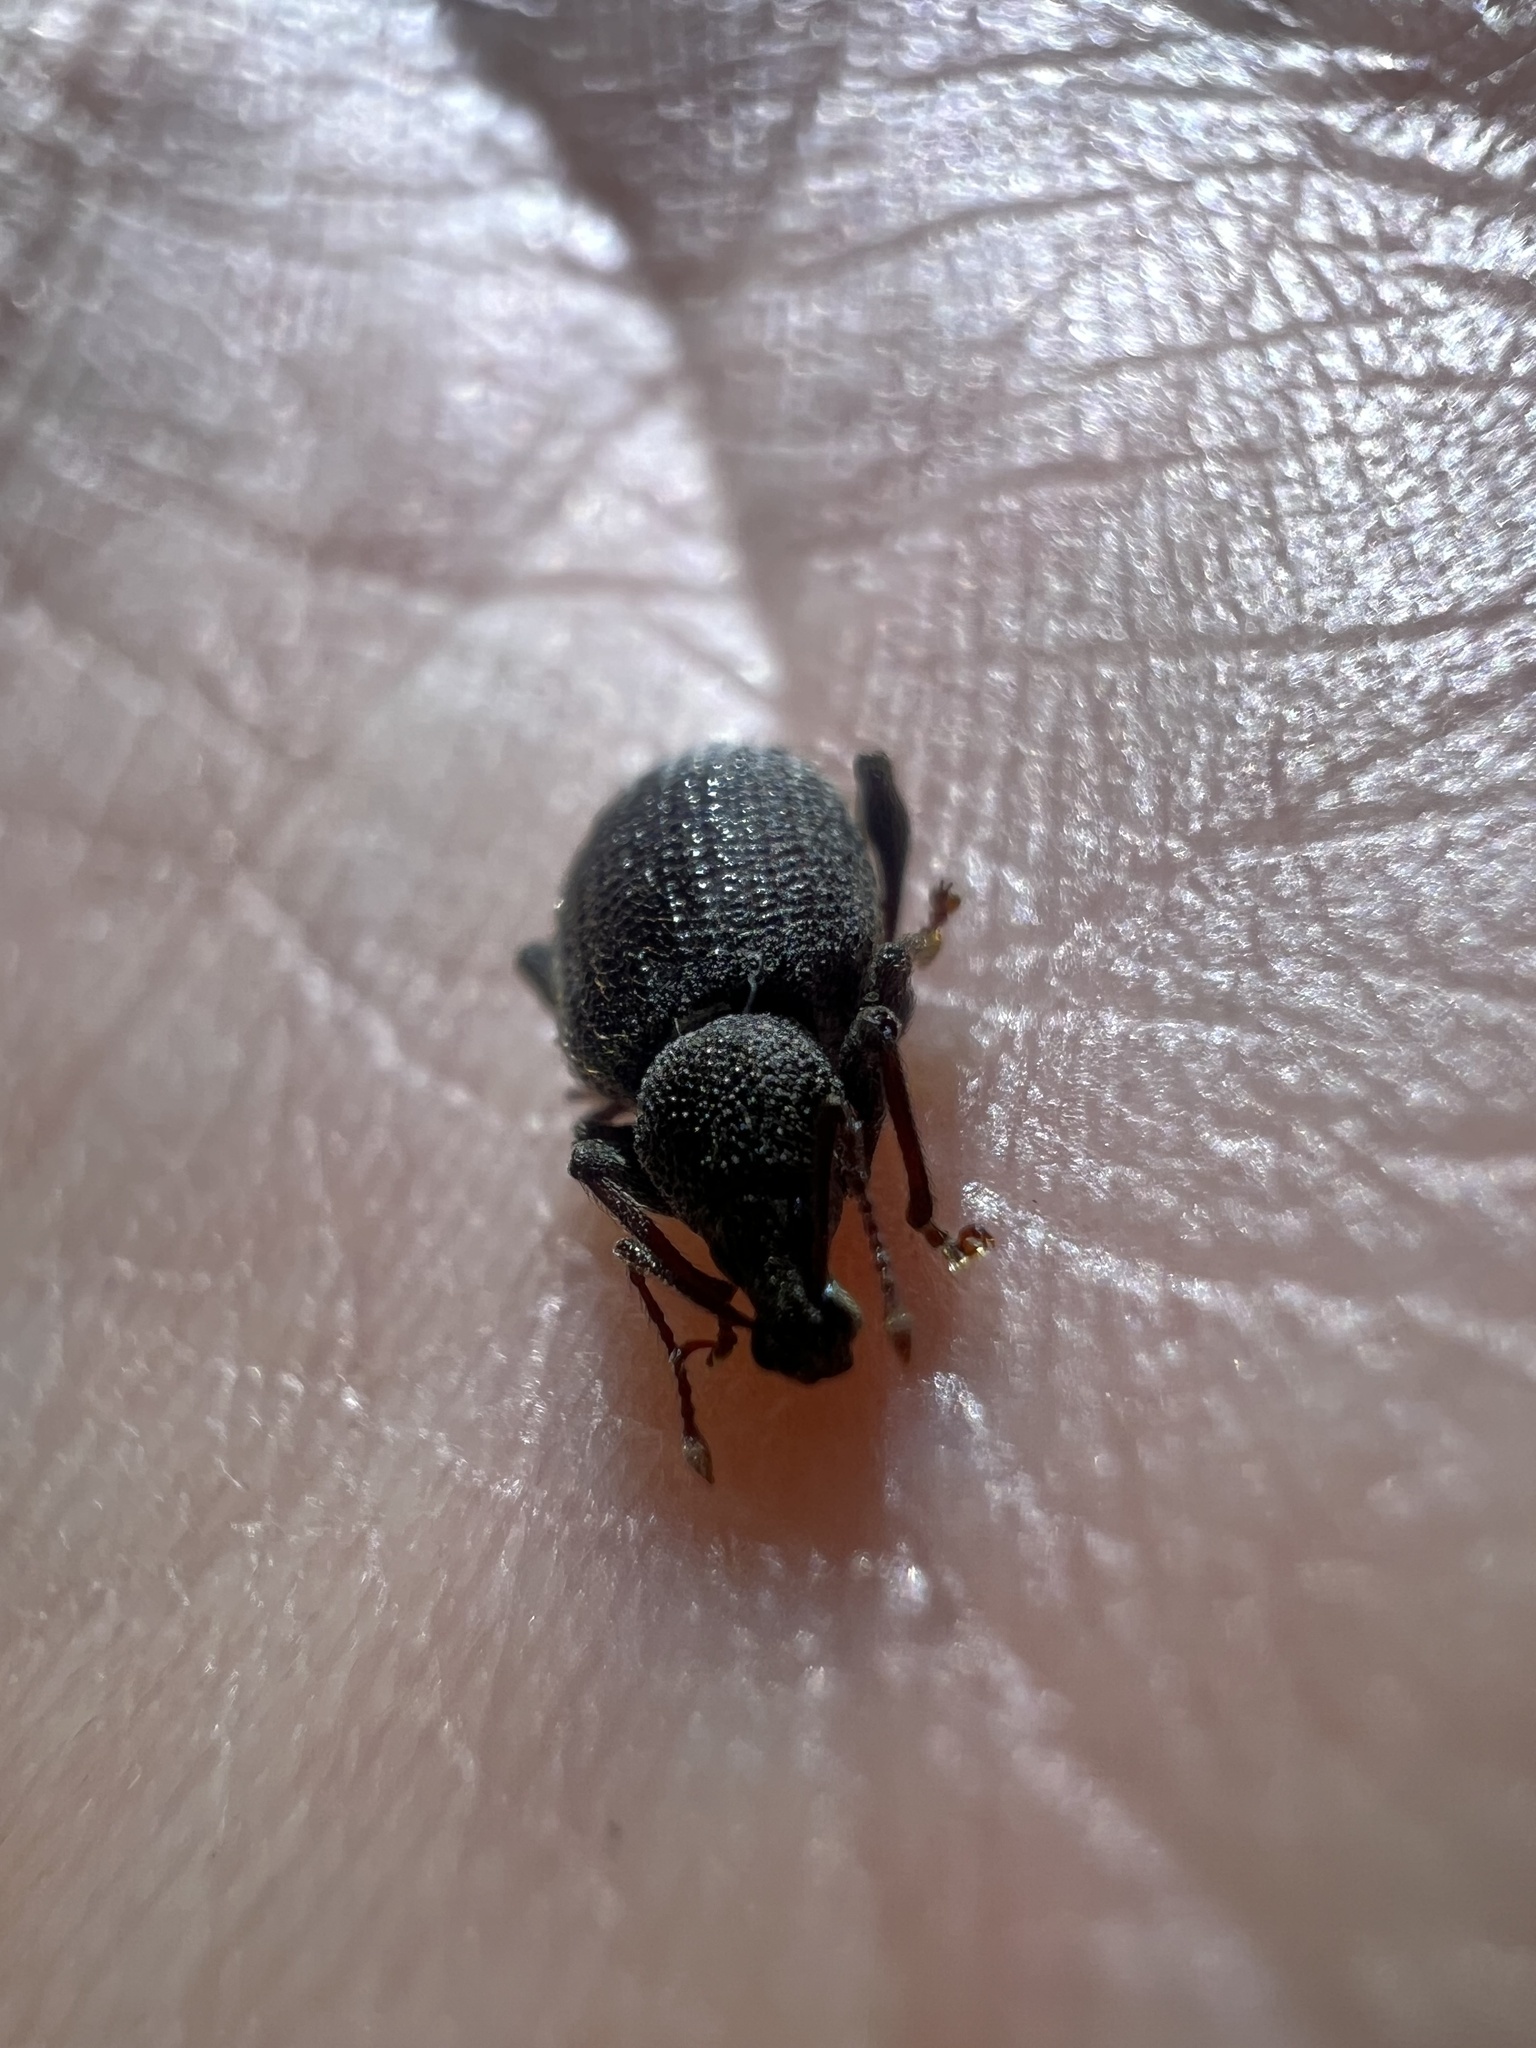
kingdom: Animalia
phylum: Arthropoda
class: Insecta
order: Coleoptera
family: Curculionidae
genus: Otiorhynchus
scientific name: Otiorhynchus rugosostriatus
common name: Weevil
